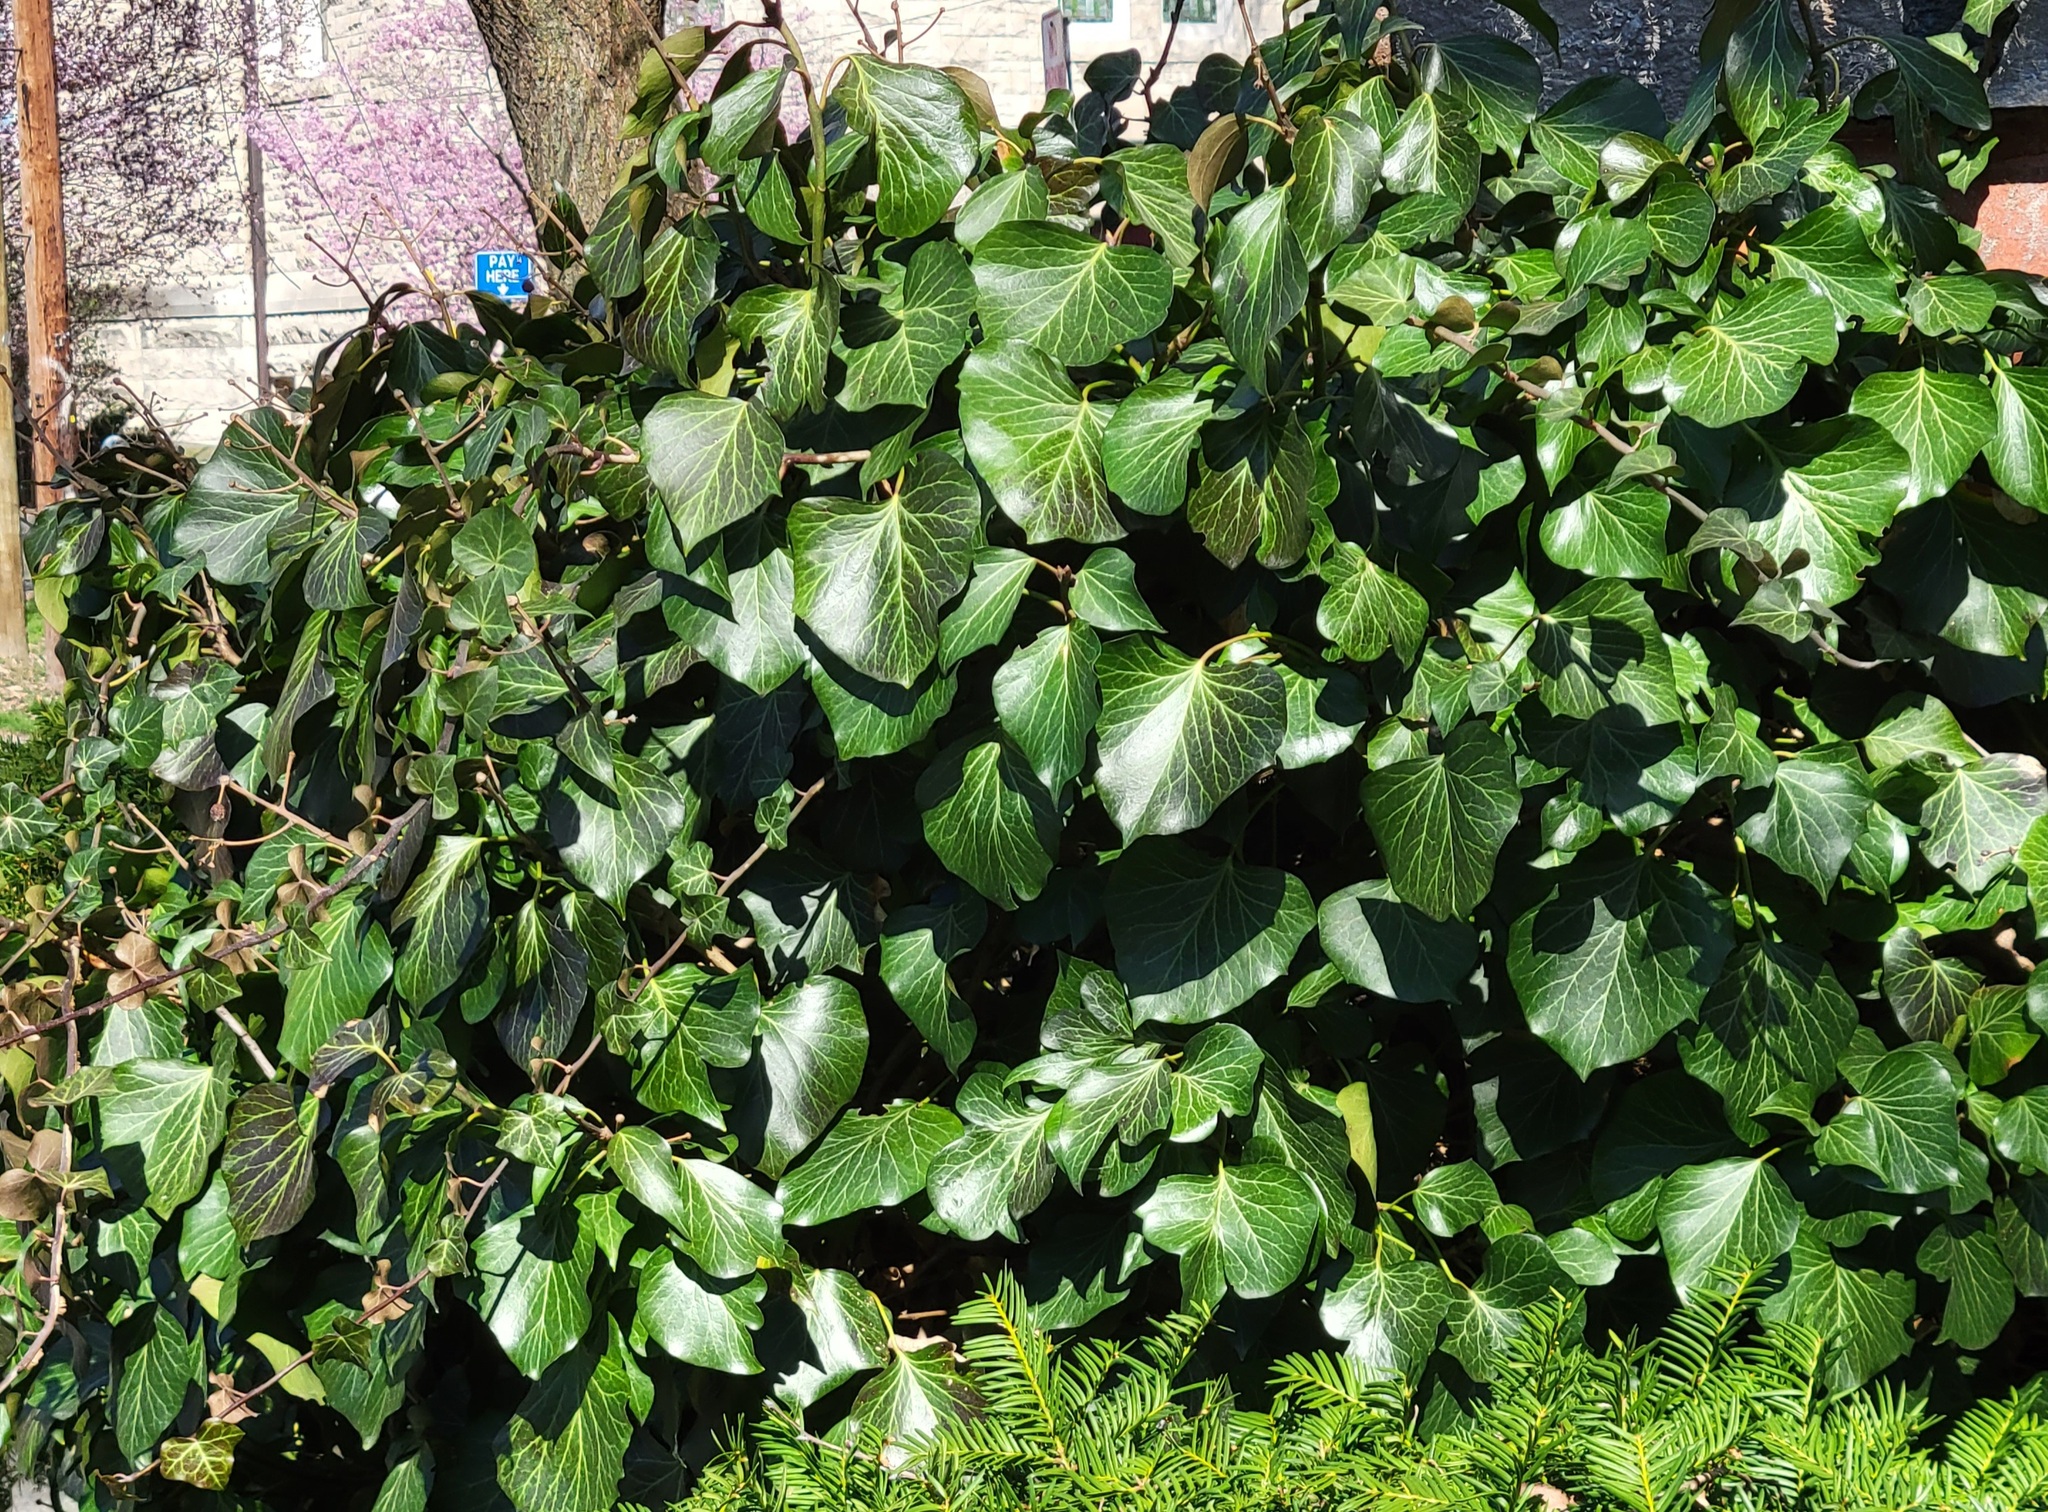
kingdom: Plantae
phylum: Tracheophyta
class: Magnoliopsida
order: Apiales
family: Araliaceae
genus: Hedera
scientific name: Hedera helix
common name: Ivy
